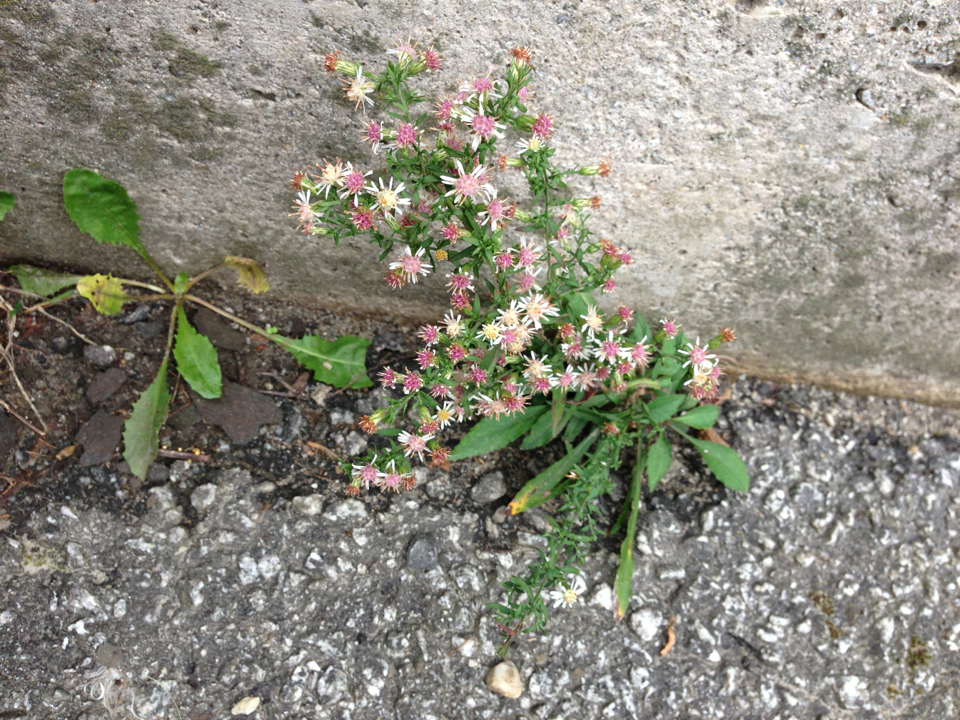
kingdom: Plantae
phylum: Tracheophyta
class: Magnoliopsida
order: Asterales
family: Asteraceae
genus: Symphyotrichum
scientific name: Symphyotrichum lateriflorum
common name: Calico aster
